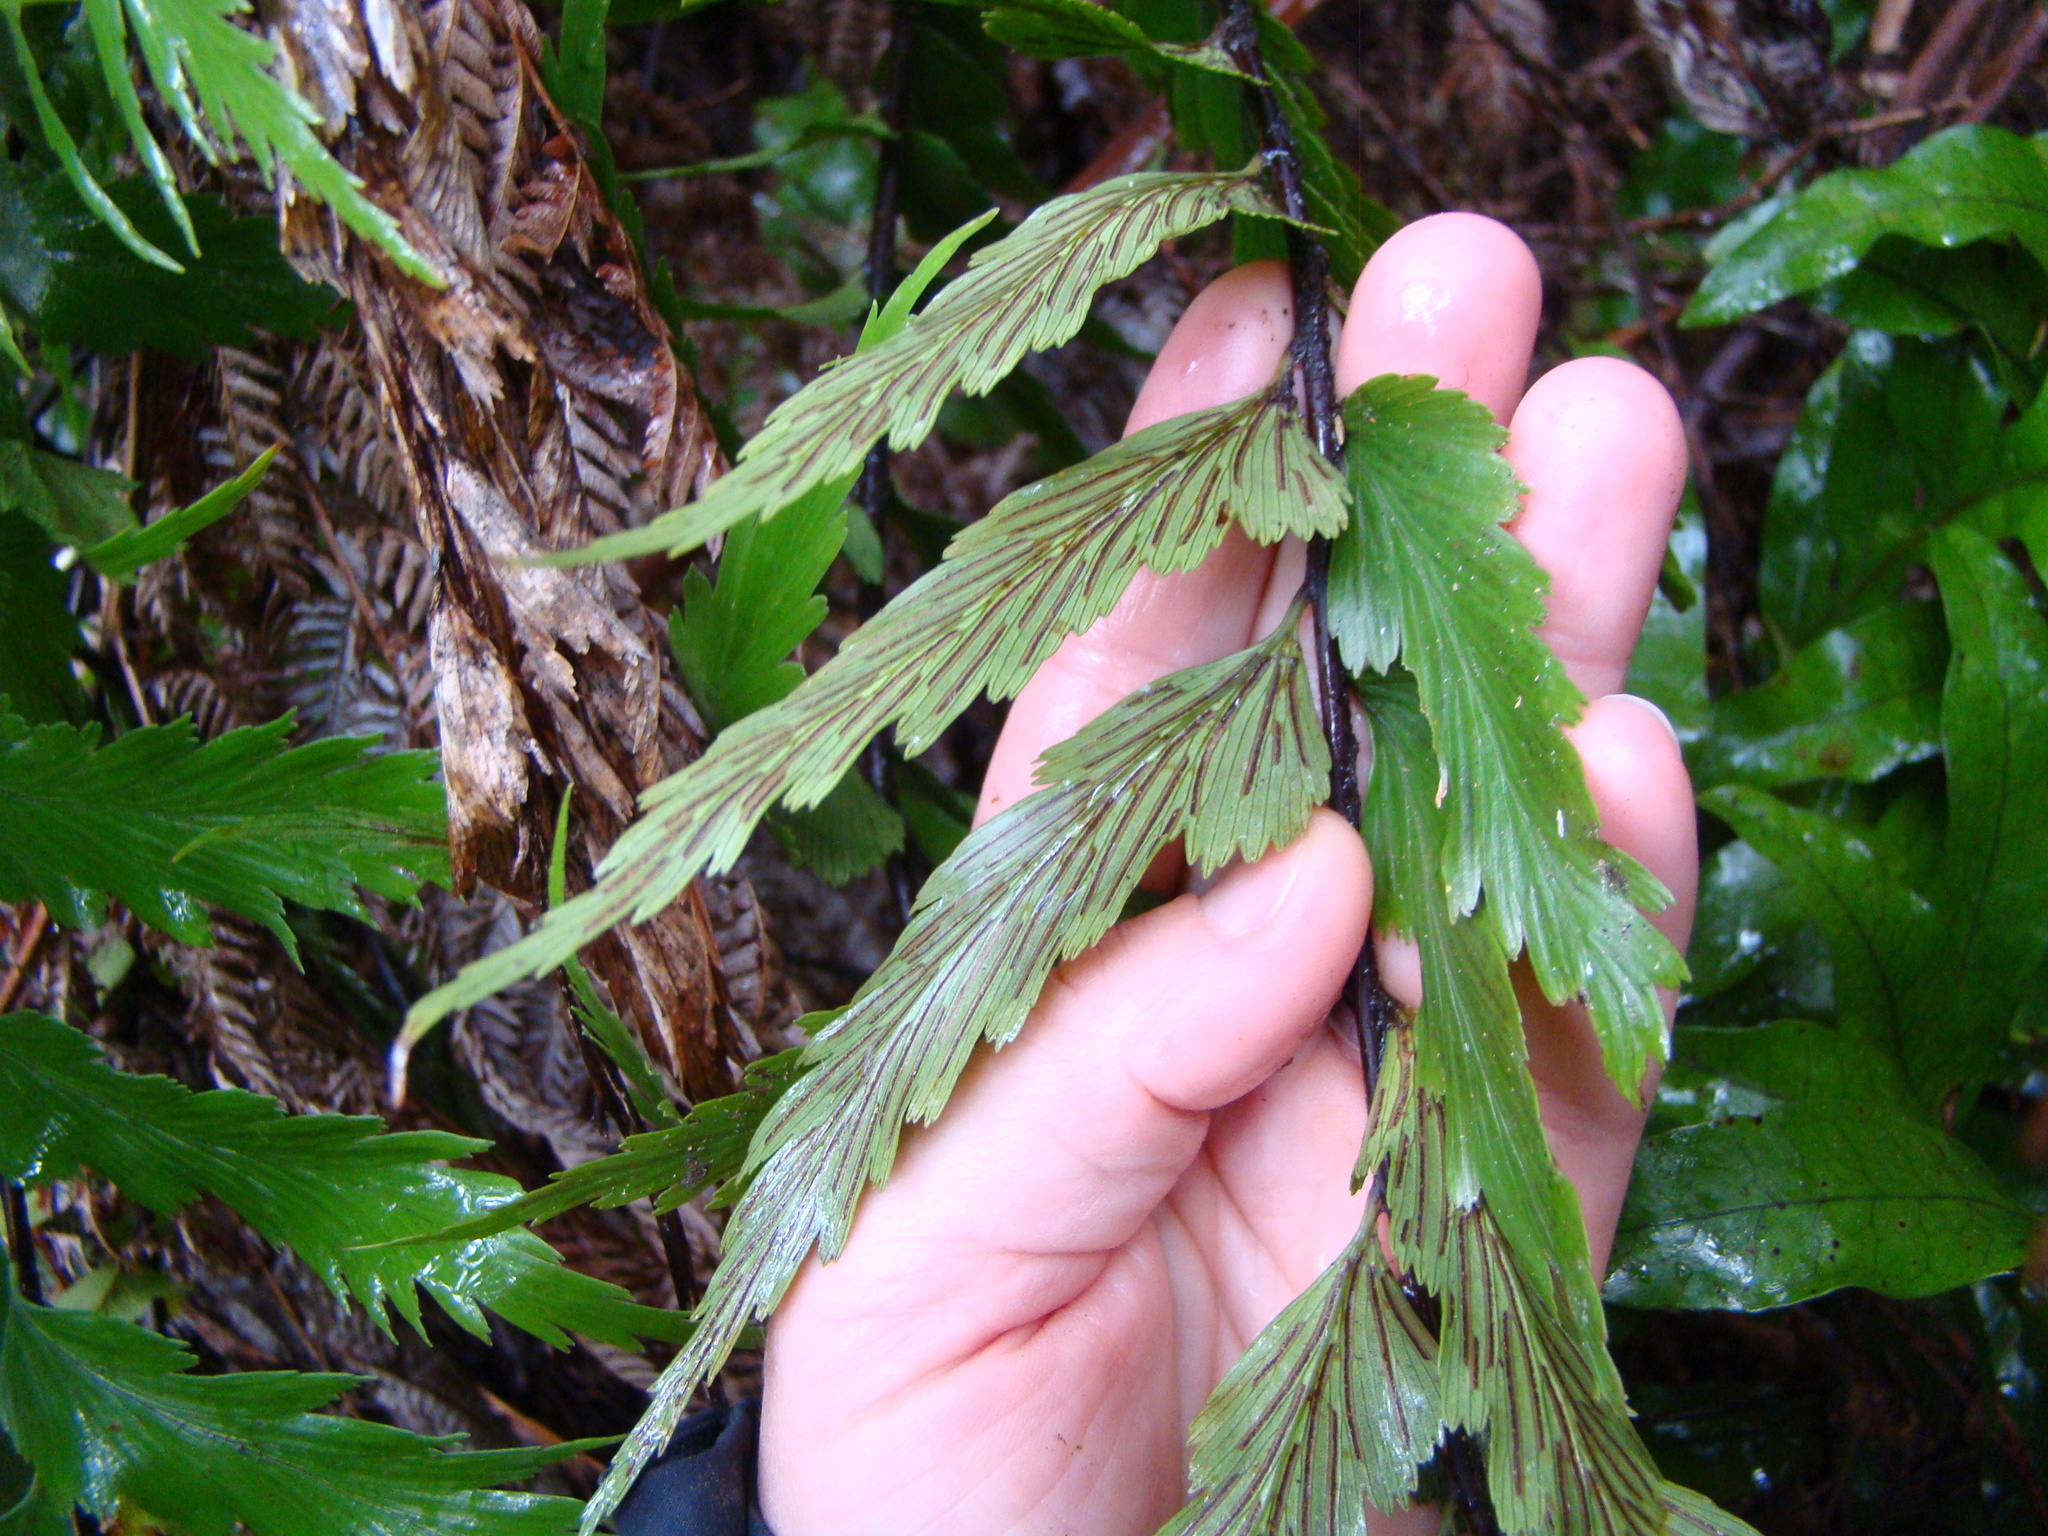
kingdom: Plantae
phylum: Tracheophyta
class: Polypodiopsida
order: Polypodiales
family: Aspleniaceae
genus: Asplenium
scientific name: Asplenium polyodon
